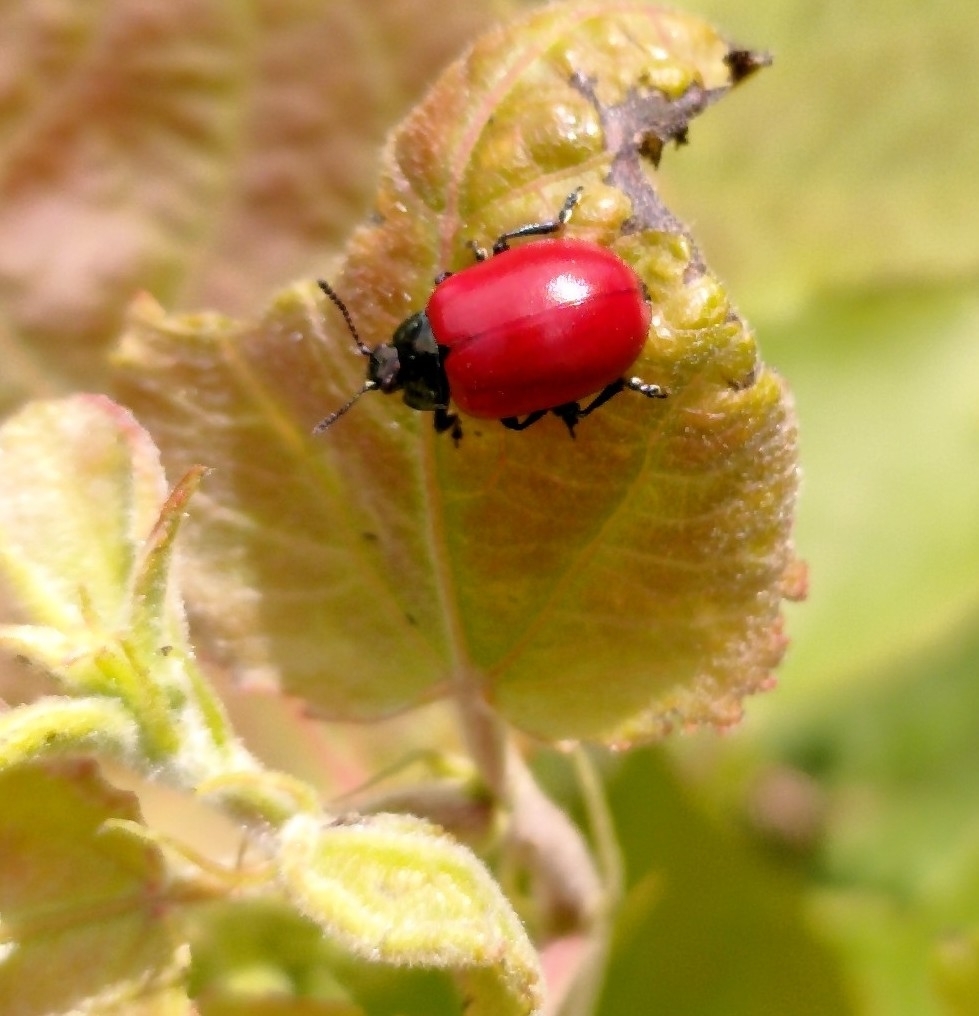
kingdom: Animalia
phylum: Arthropoda
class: Insecta
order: Coleoptera
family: Chrysomelidae
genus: Chrysomela
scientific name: Chrysomela populi
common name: Red poplar leaf beetle
